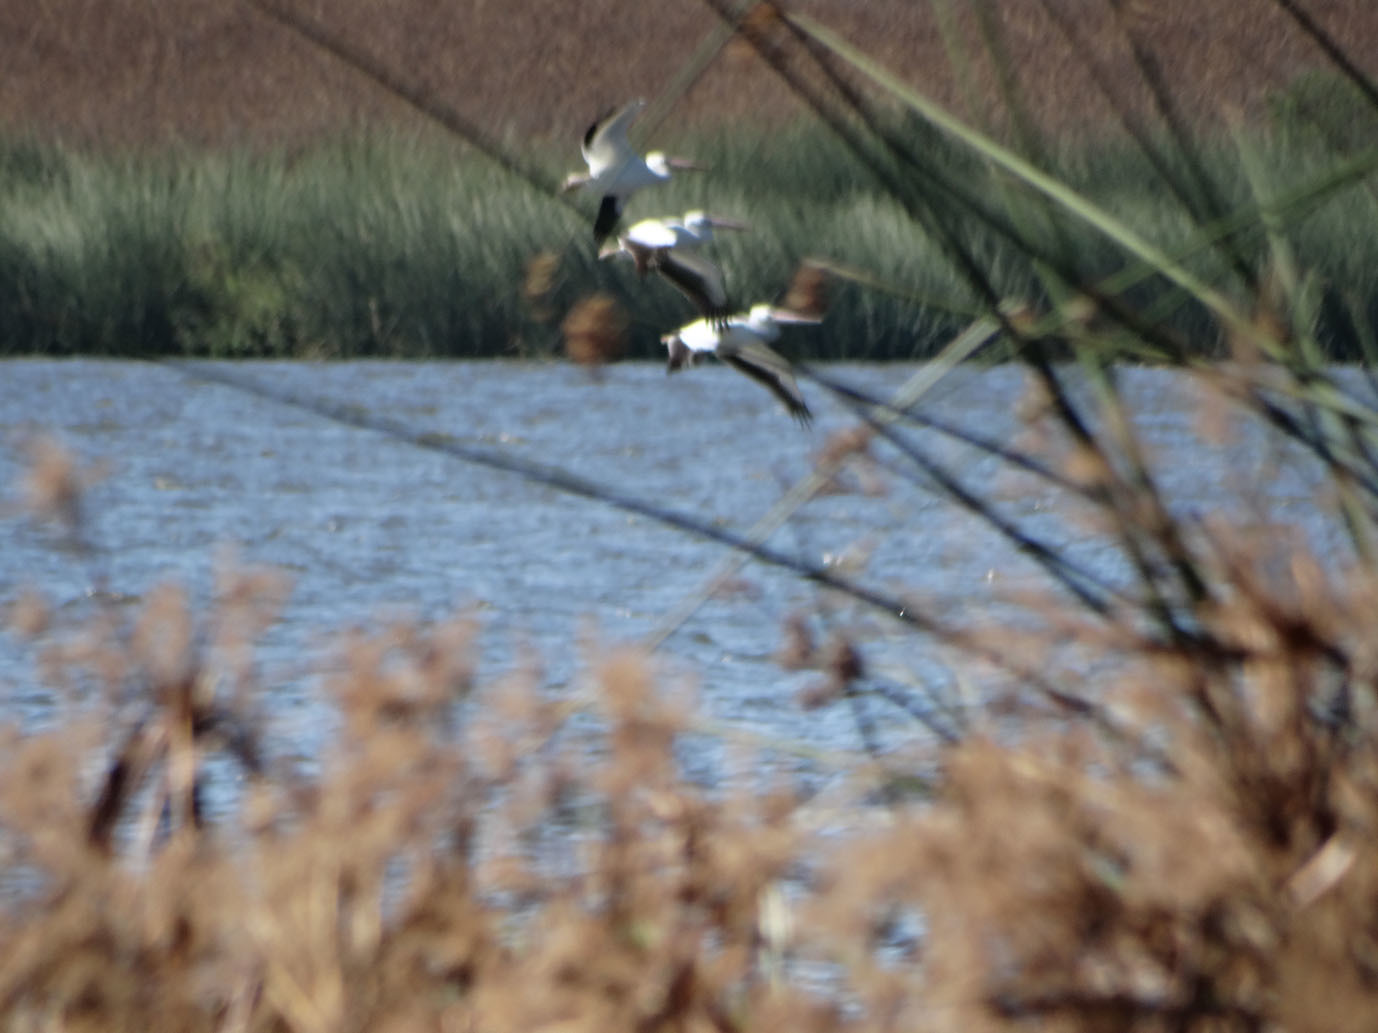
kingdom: Animalia
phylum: Chordata
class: Aves
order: Pelecaniformes
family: Pelecanidae
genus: Pelecanus
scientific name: Pelecanus erythrorhynchos
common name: American white pelican
